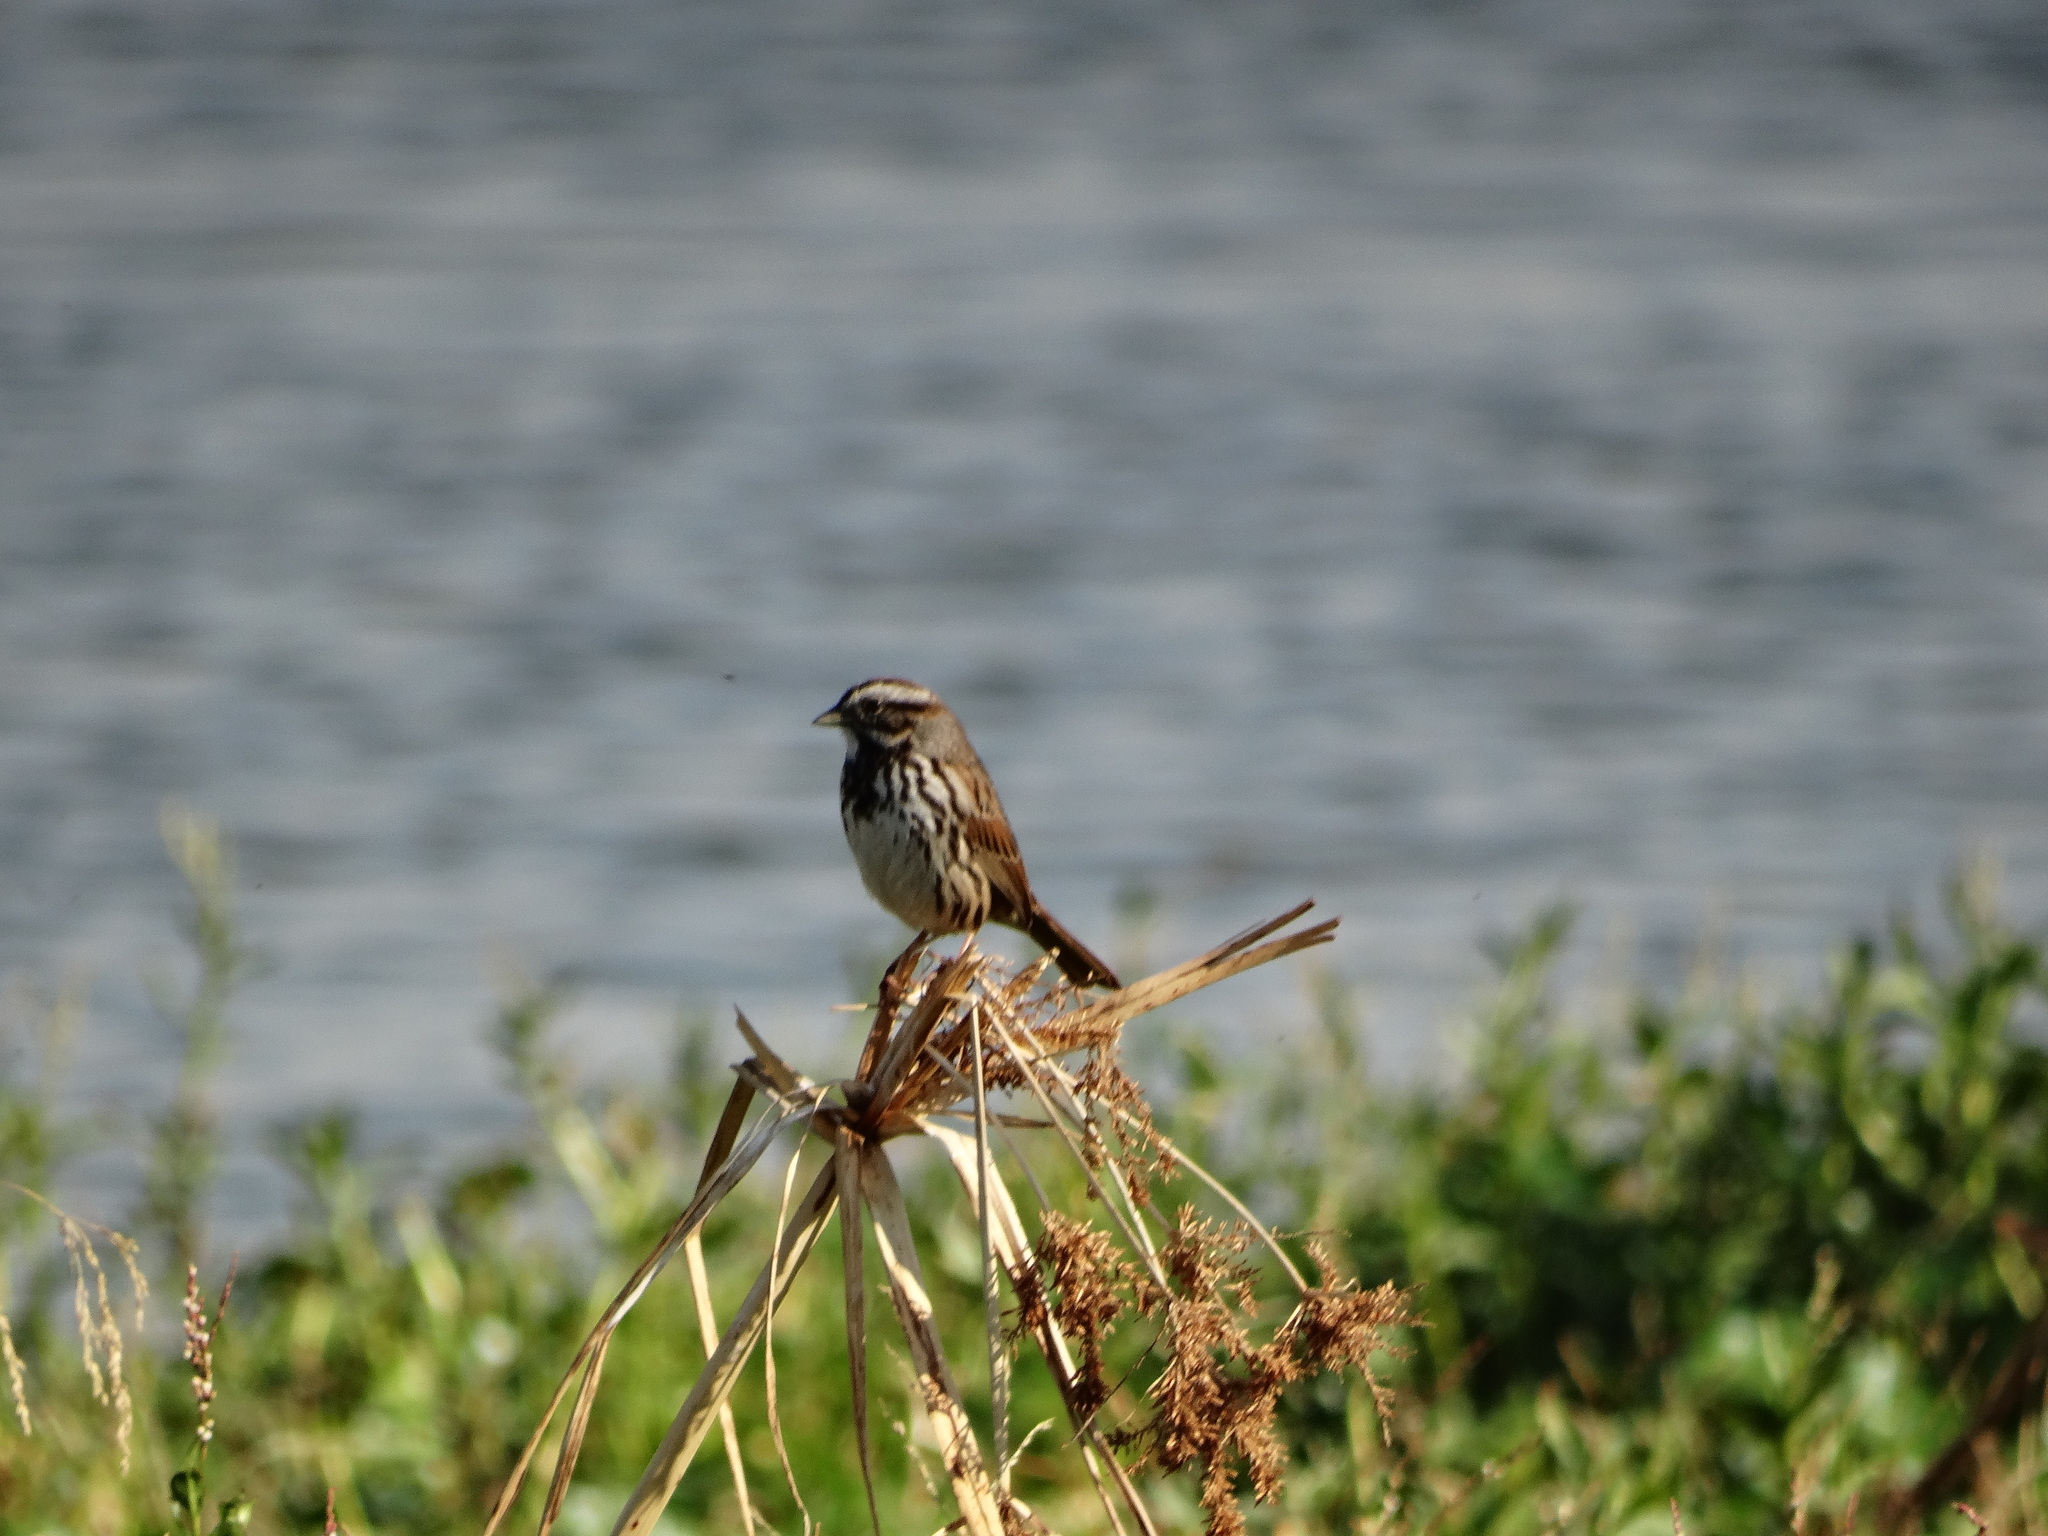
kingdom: Animalia
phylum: Chordata
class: Aves
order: Passeriformes
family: Passerellidae
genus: Melospiza
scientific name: Melospiza melodia
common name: Song sparrow
